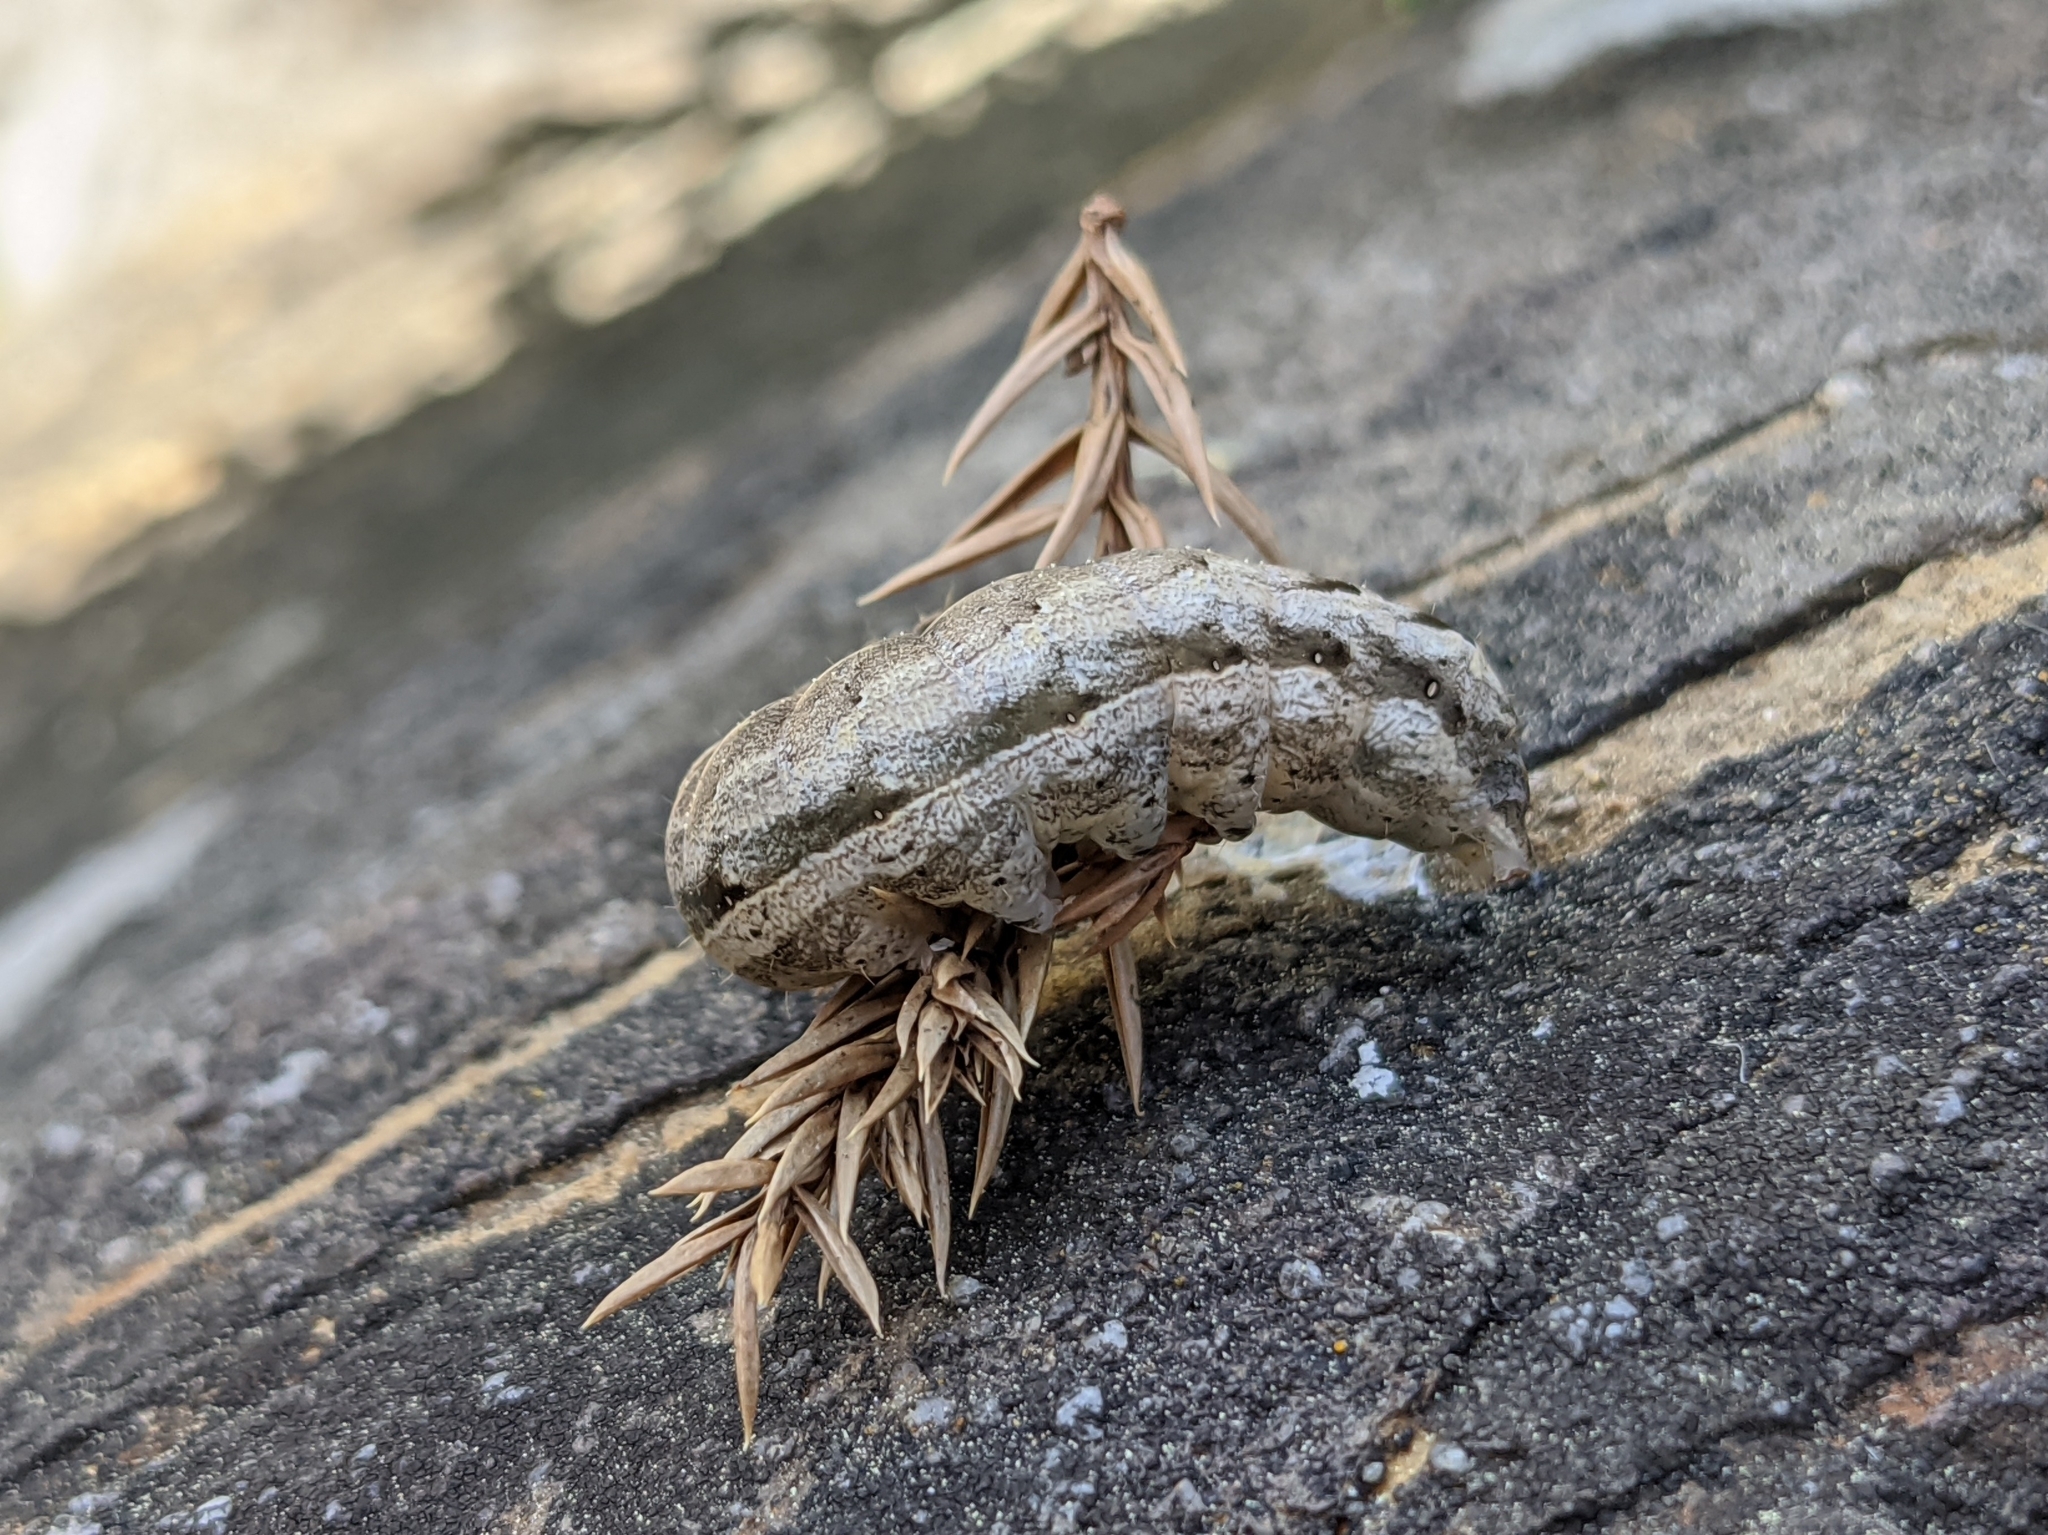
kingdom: Animalia
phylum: Arthropoda
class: Insecta
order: Lepidoptera
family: Noctuidae
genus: Noctua
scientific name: Noctua comes
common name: Lesser yellow underwing
